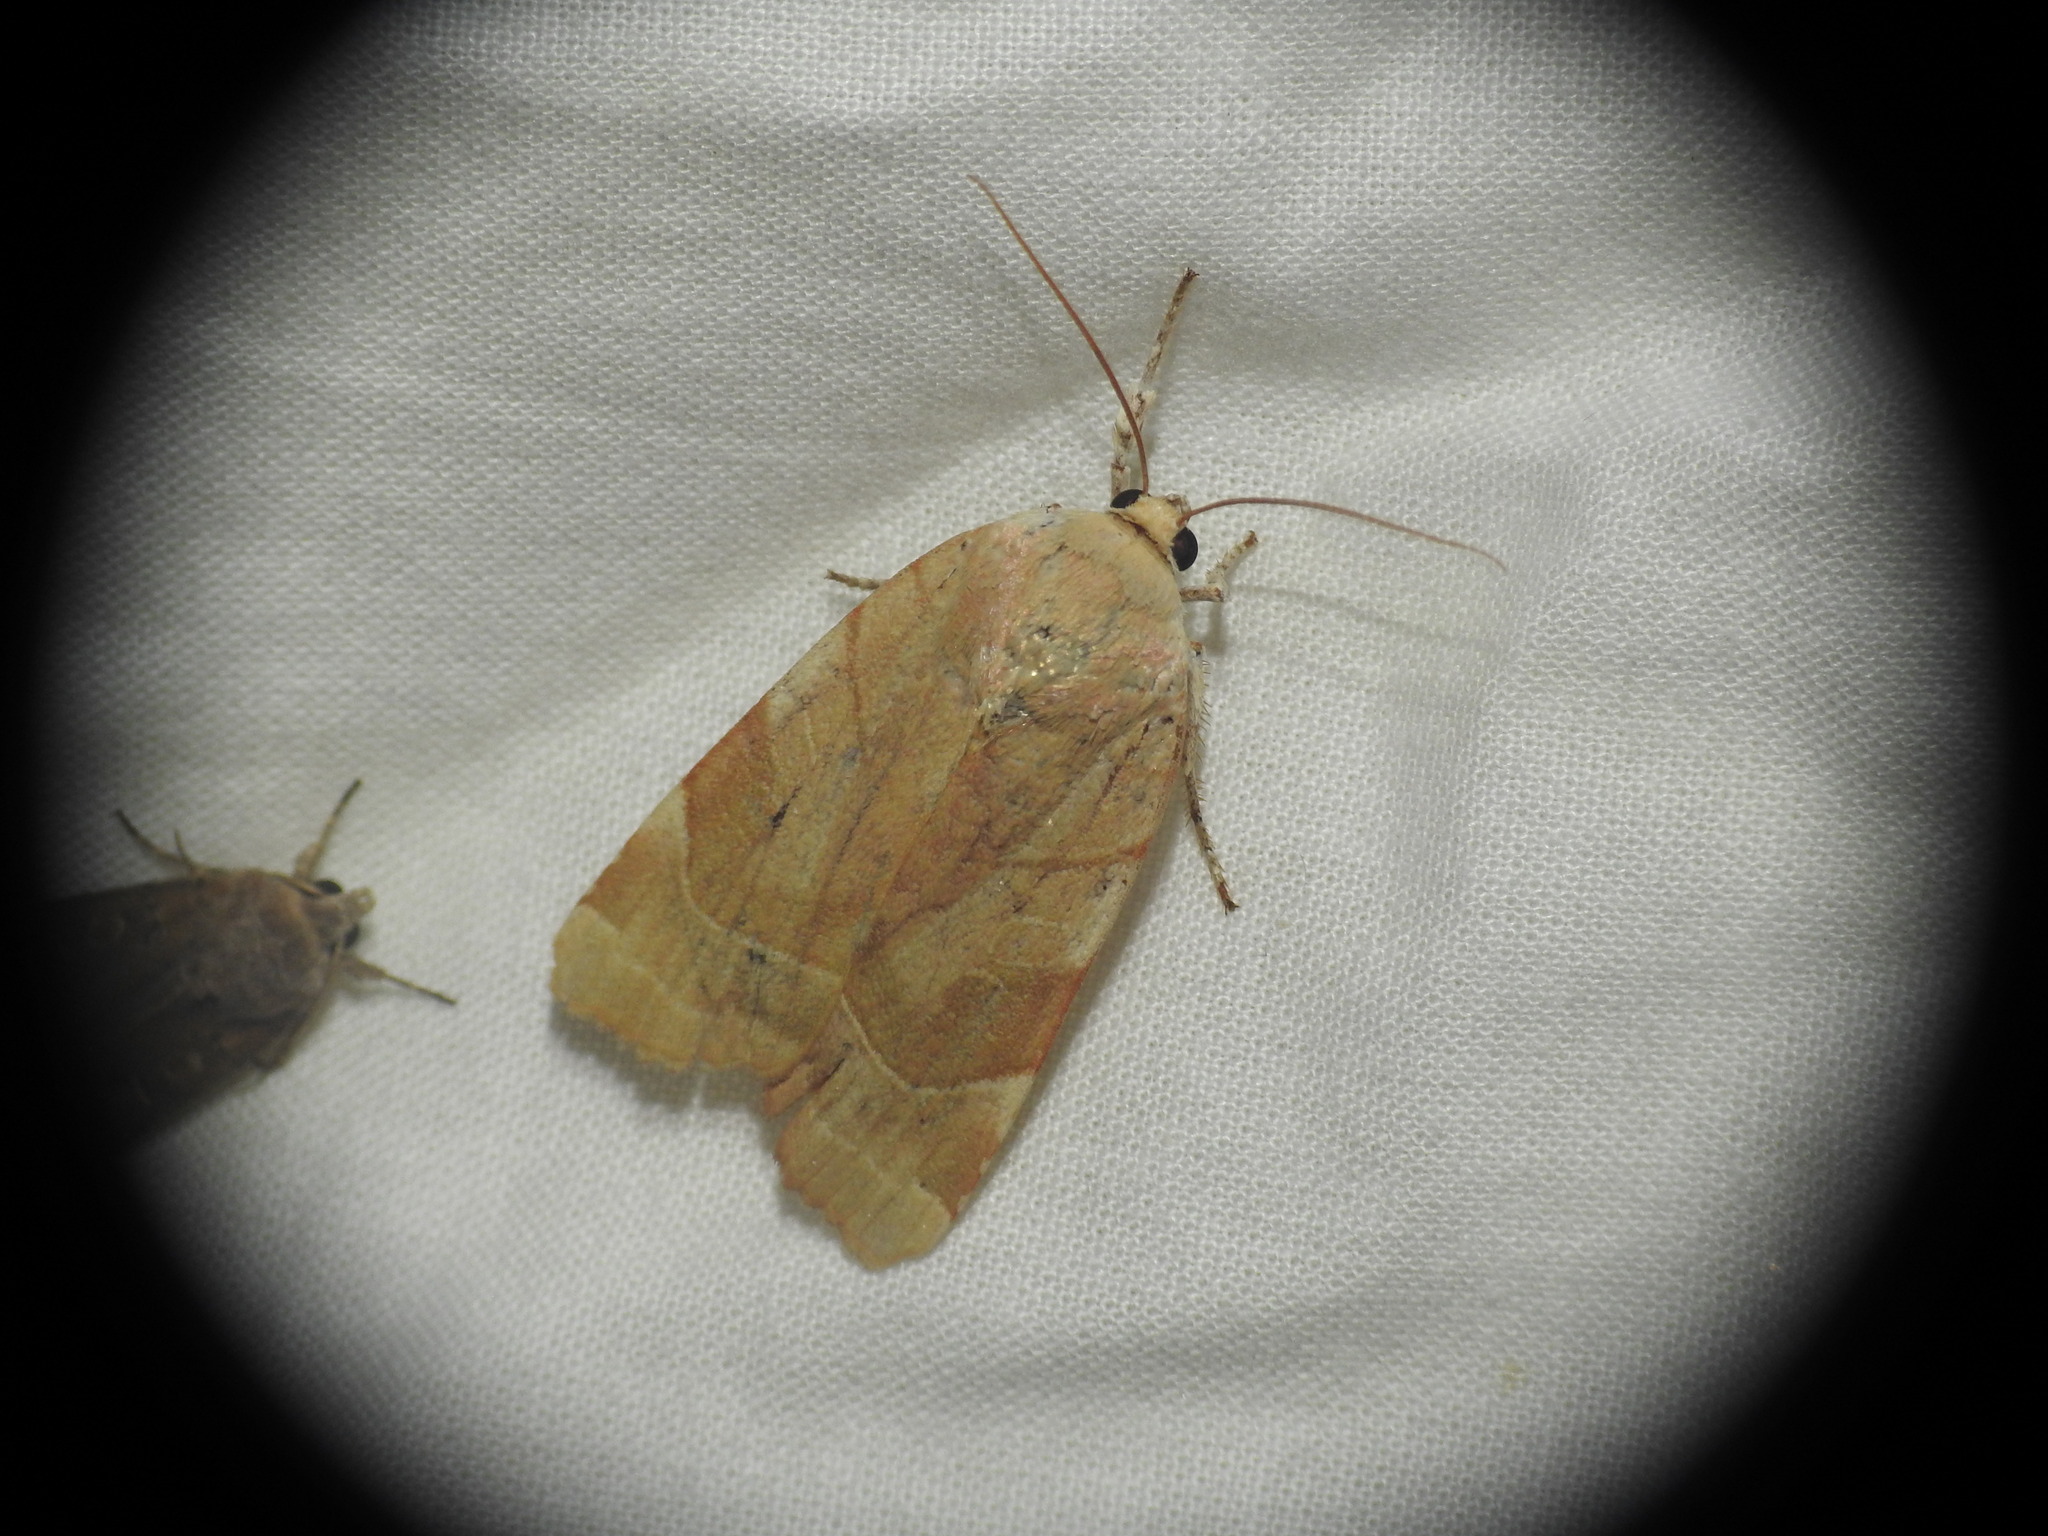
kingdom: Animalia
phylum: Arthropoda
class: Insecta
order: Lepidoptera
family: Noctuidae
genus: Noctua
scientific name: Noctua fimbriata
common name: Broad-bordered yellow underwing
